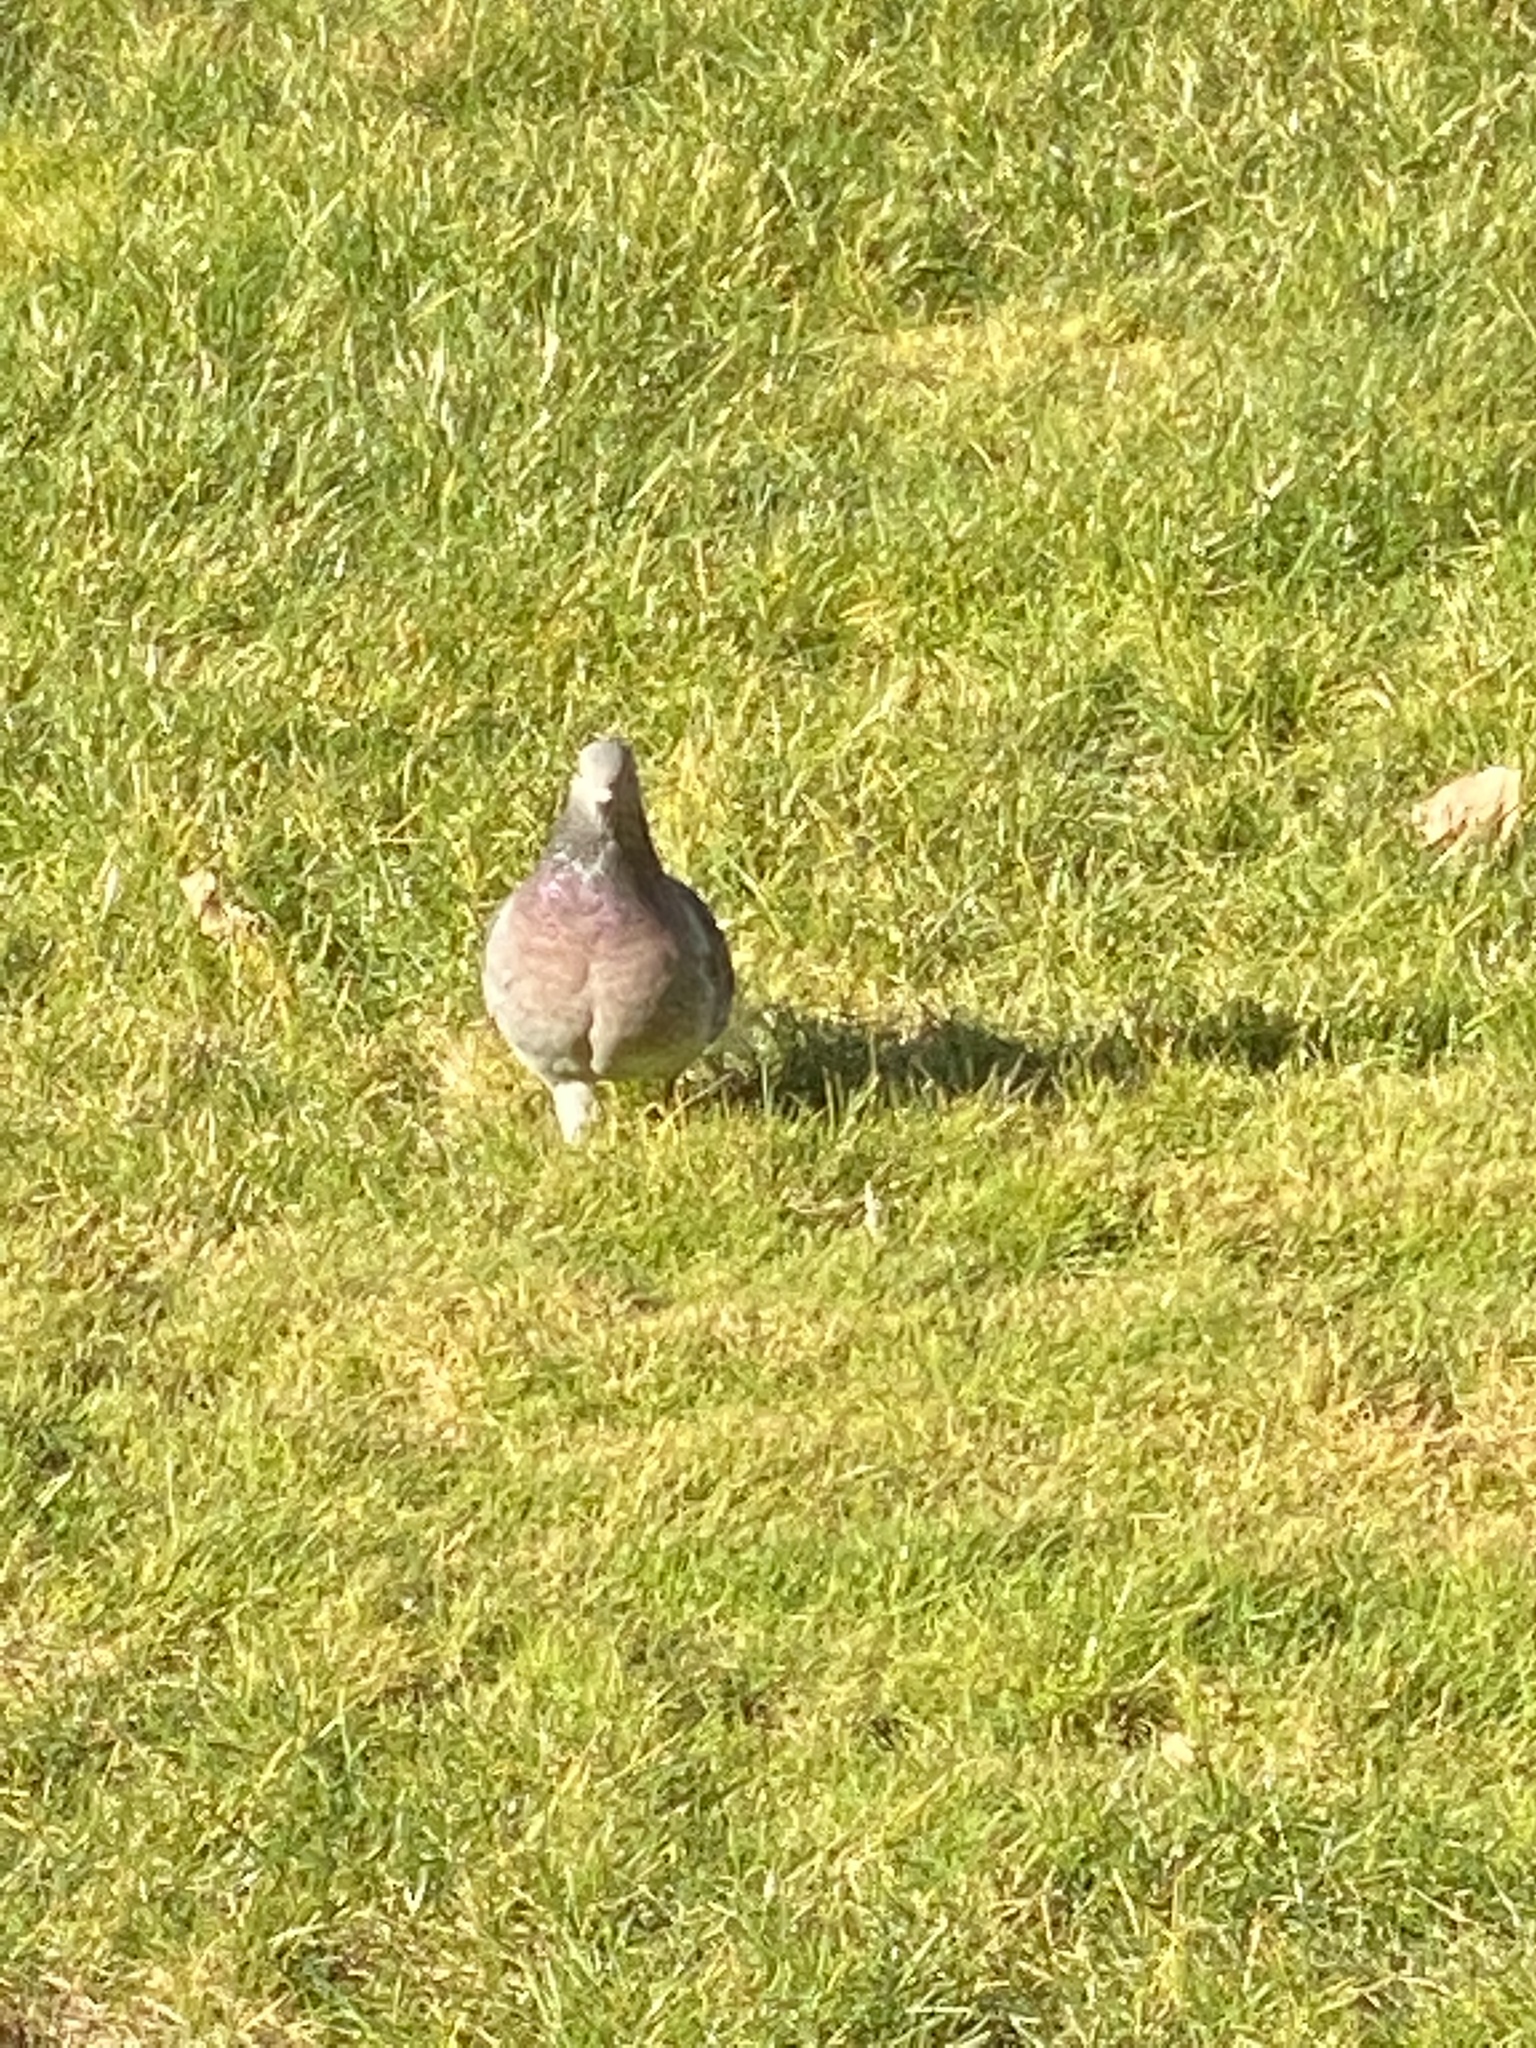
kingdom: Animalia
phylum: Chordata
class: Aves
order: Columbiformes
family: Columbidae
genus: Columba
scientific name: Columba livia
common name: Rock pigeon
